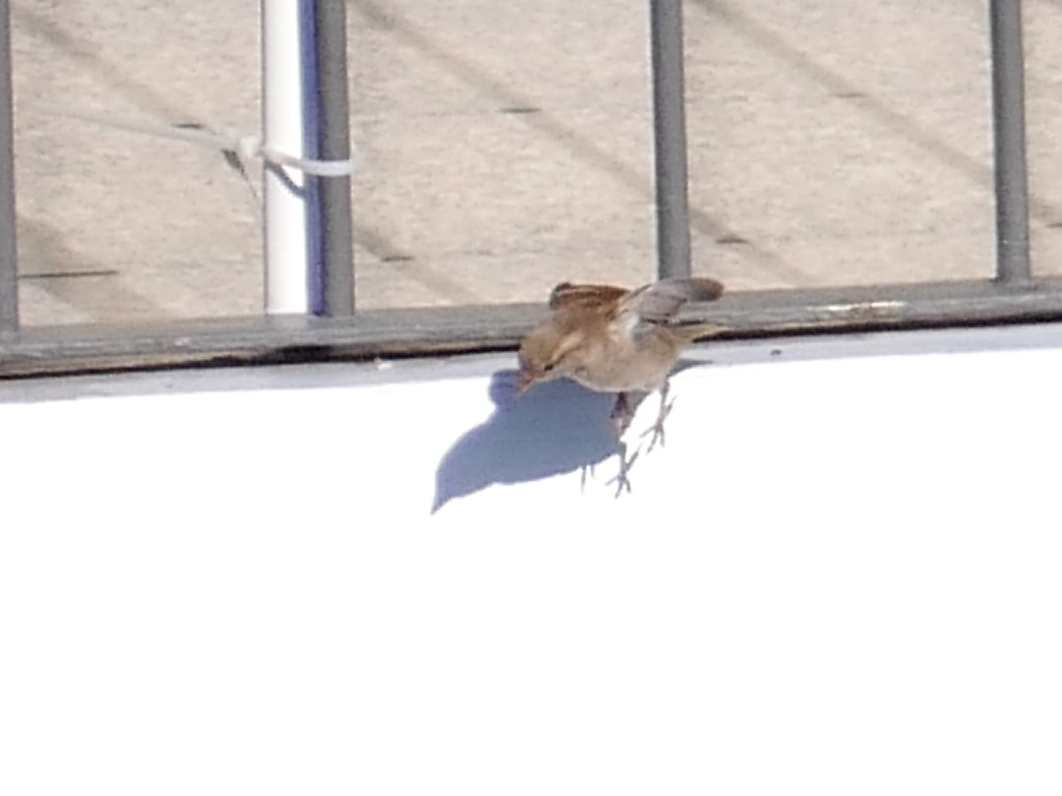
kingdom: Animalia
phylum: Chordata
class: Aves
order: Passeriformes
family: Passeridae
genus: Passer
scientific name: Passer domesticus
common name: House sparrow
